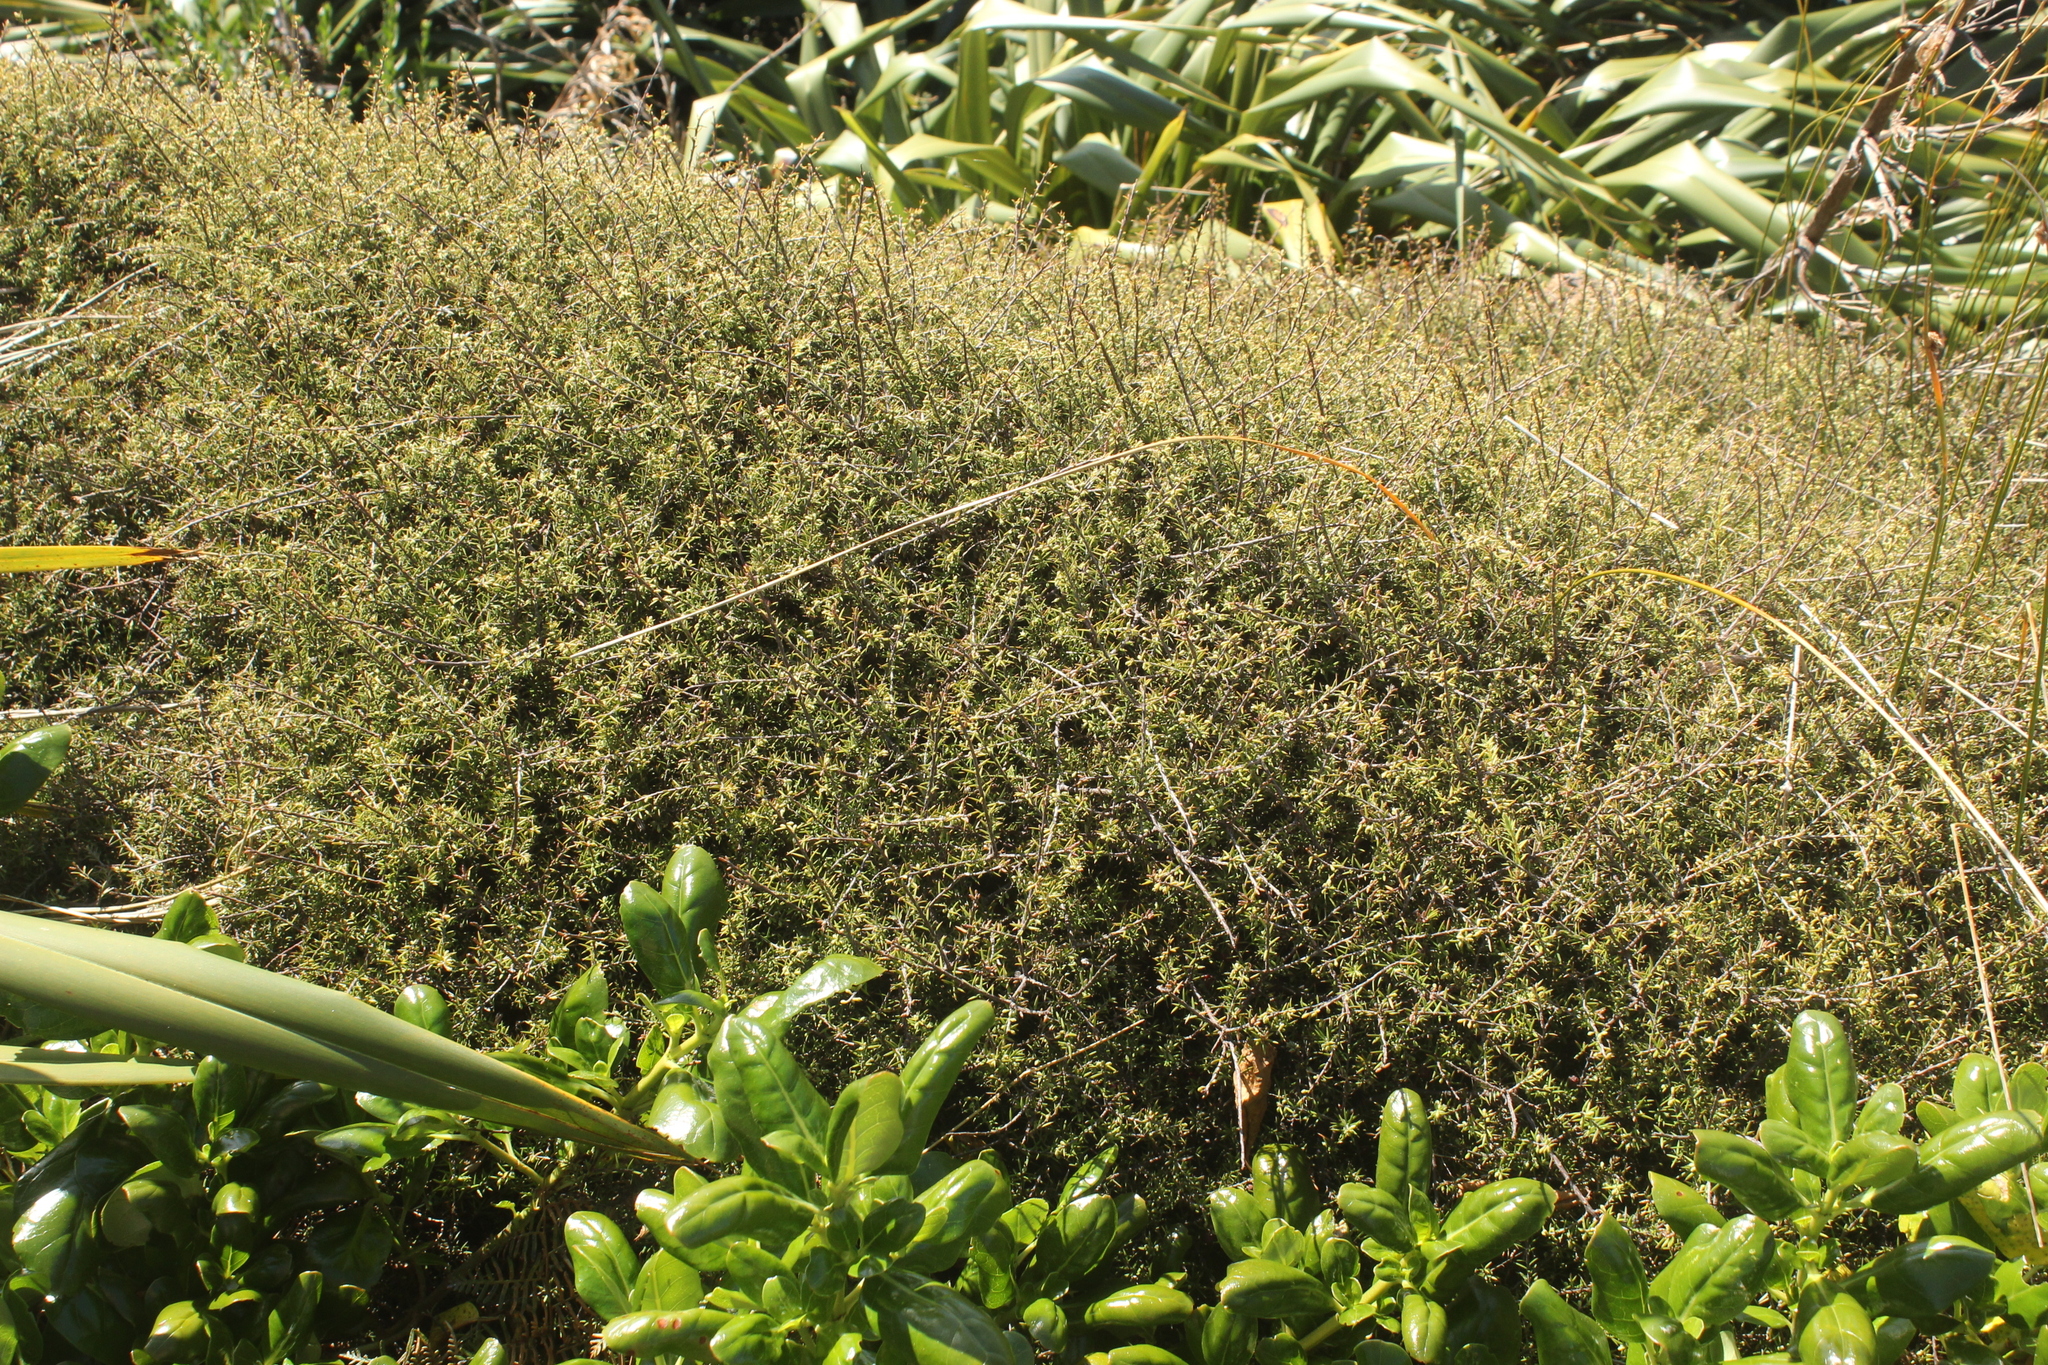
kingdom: Plantae
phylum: Tracheophyta
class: Magnoliopsida
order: Ericales
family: Ericaceae
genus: Leptecophylla
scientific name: Leptecophylla juniperina
